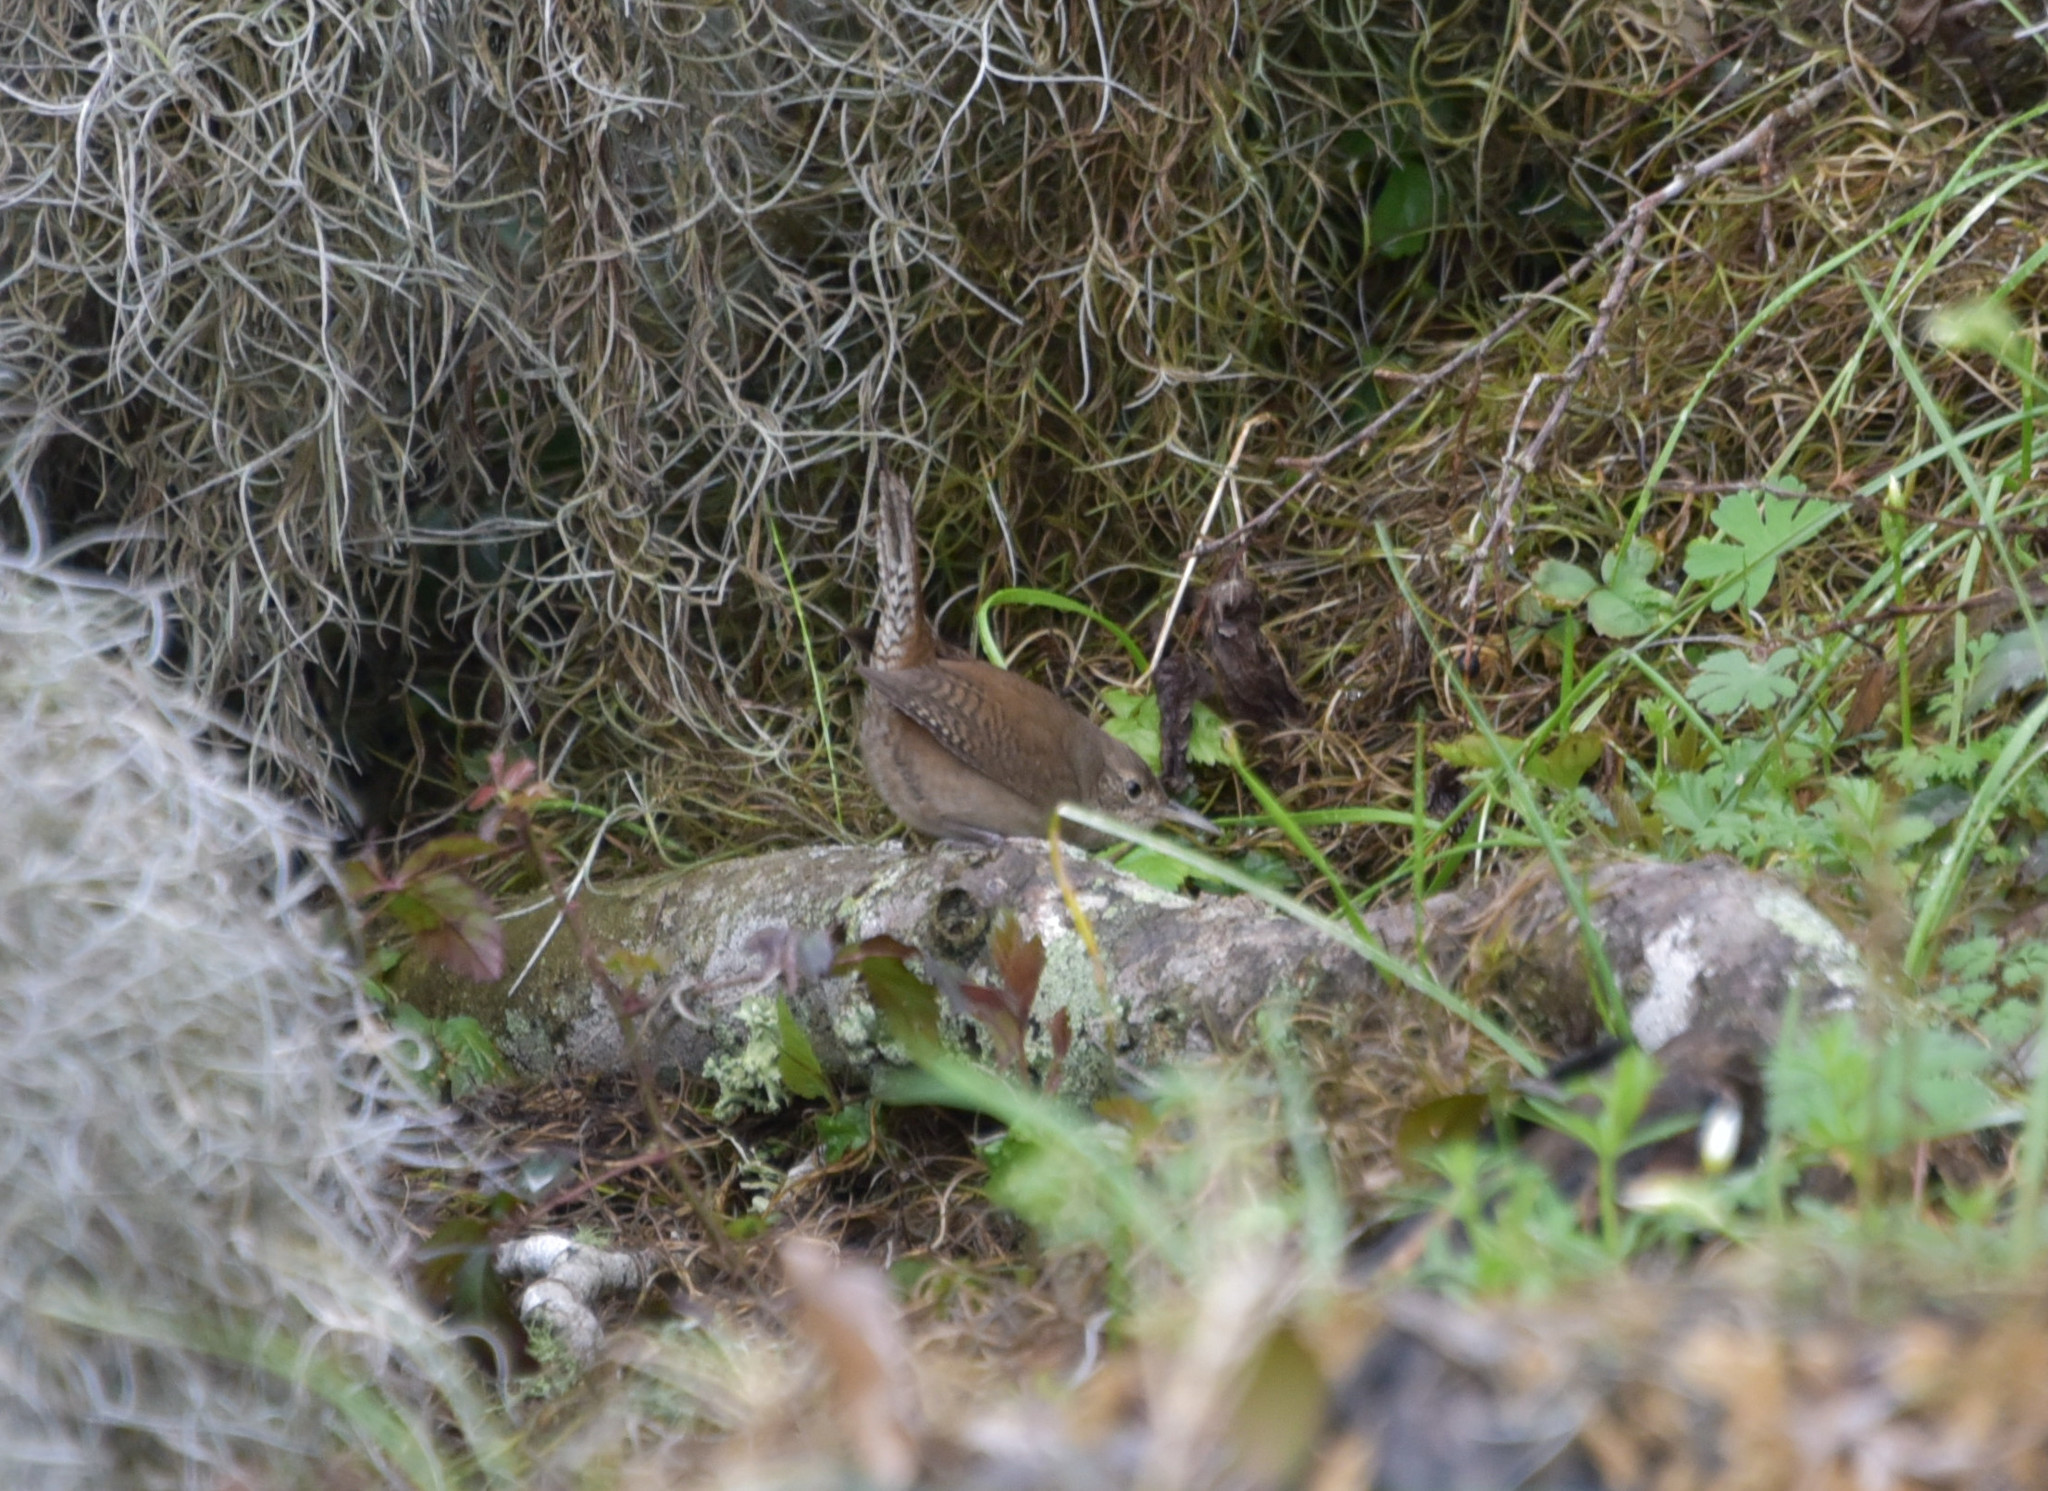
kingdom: Animalia
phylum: Chordata
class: Aves
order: Passeriformes
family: Troglodytidae
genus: Troglodytes
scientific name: Troglodytes aedon
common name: House wren
